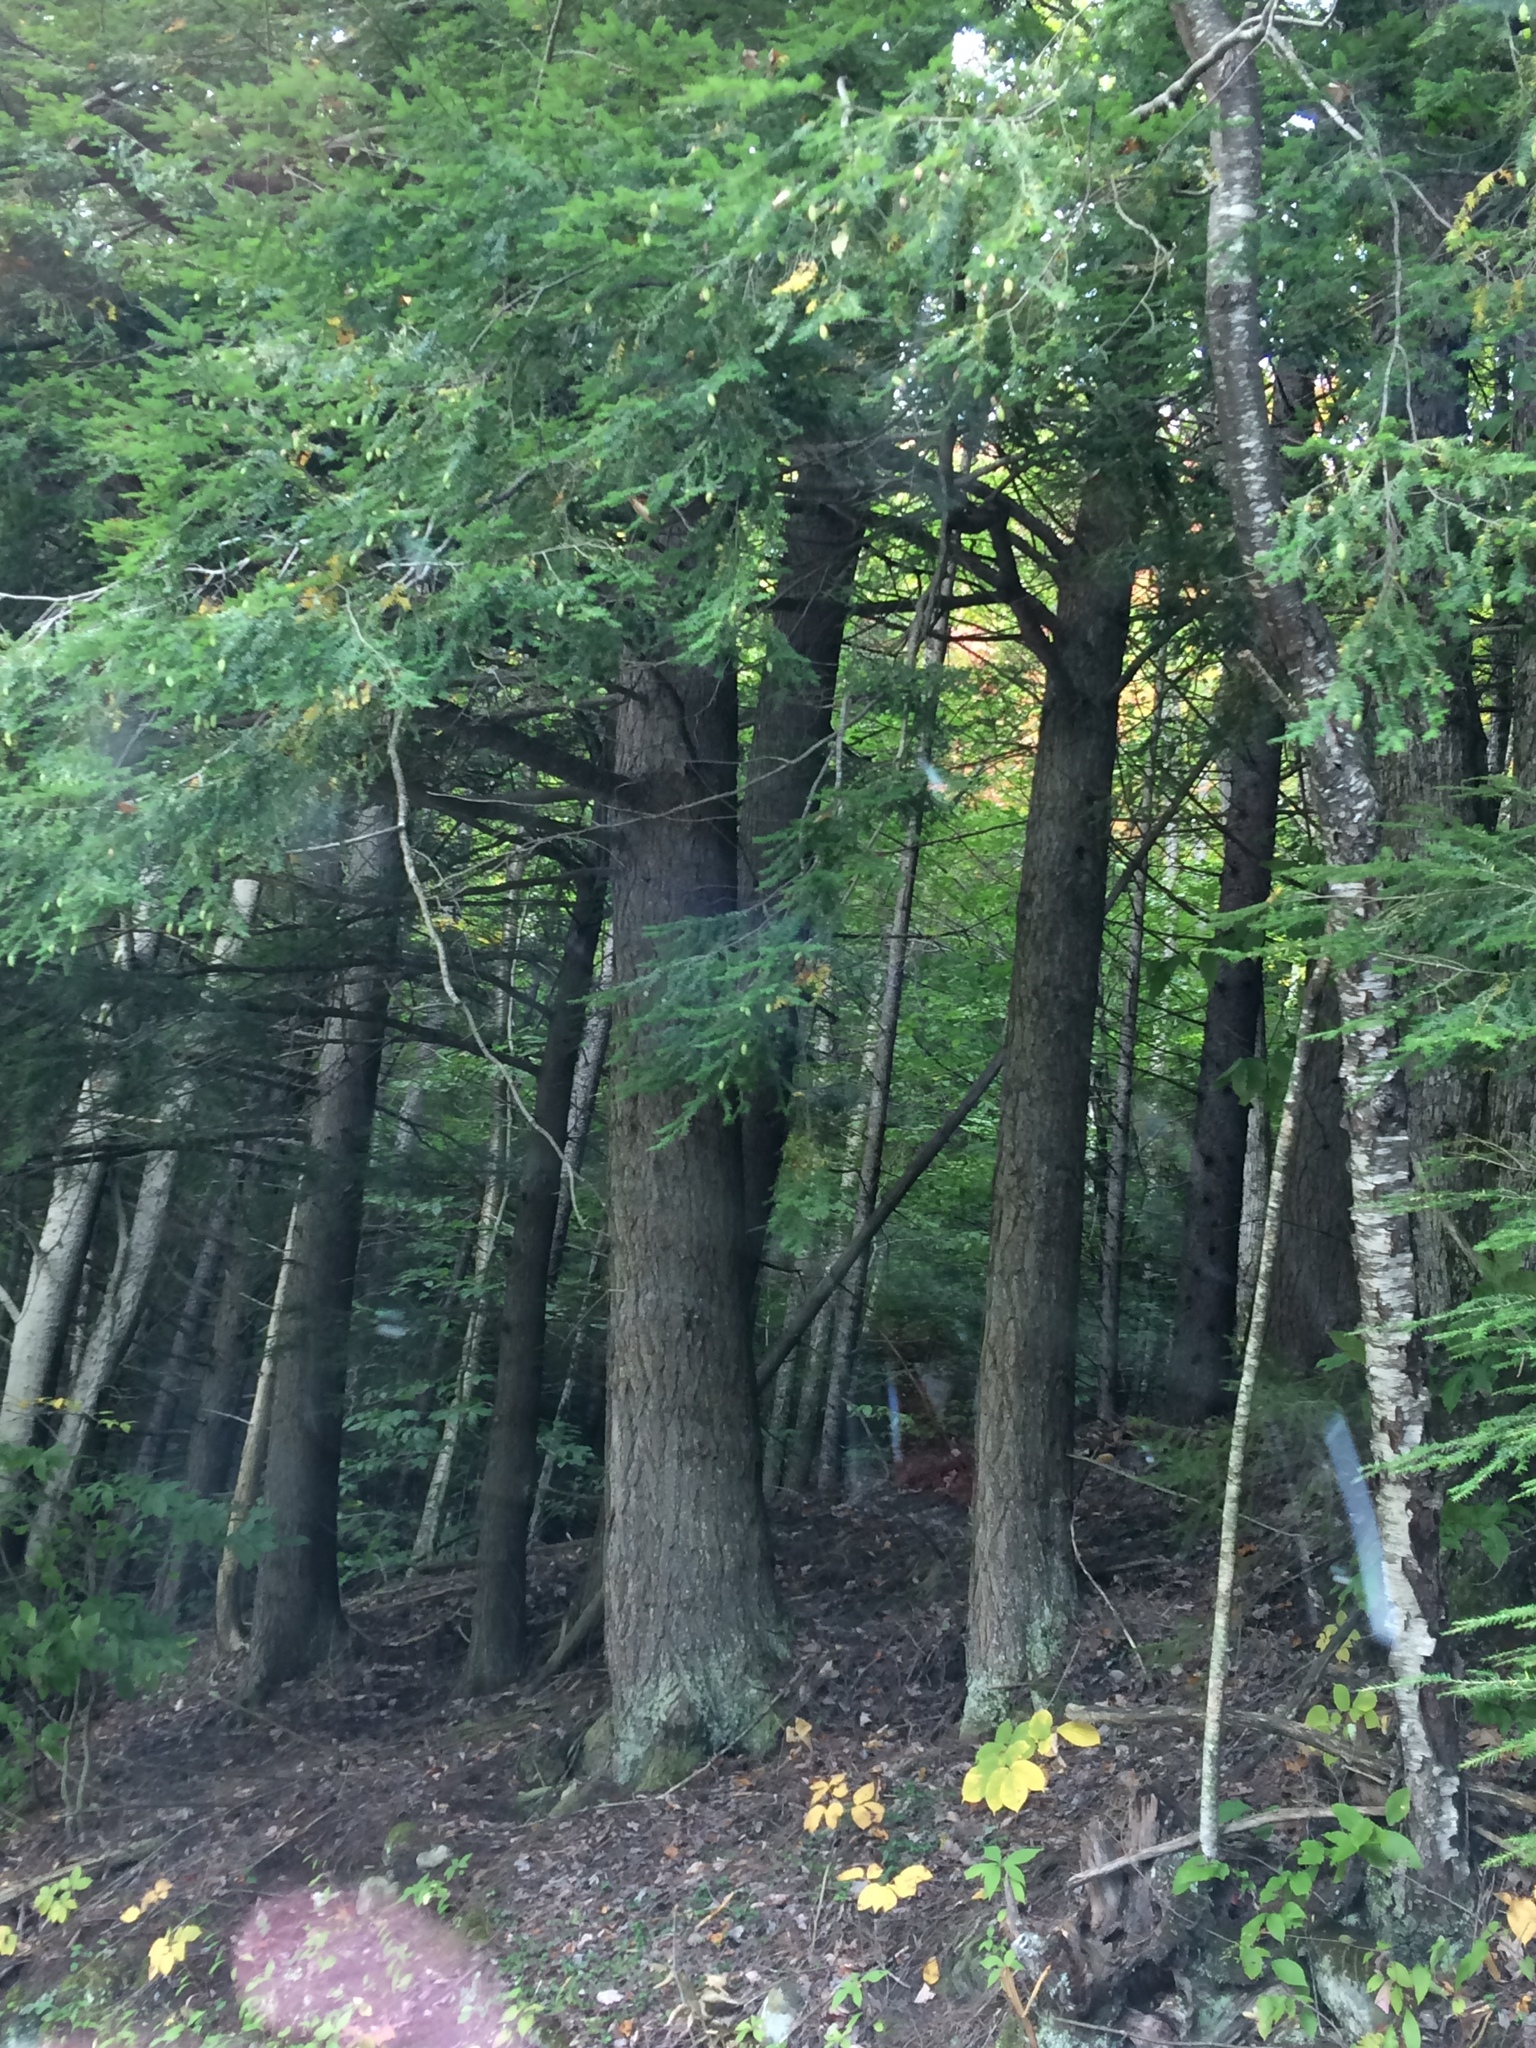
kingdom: Plantae
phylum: Tracheophyta
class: Pinopsida
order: Pinales
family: Pinaceae
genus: Tsuga
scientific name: Tsuga canadensis
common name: Eastern hemlock
